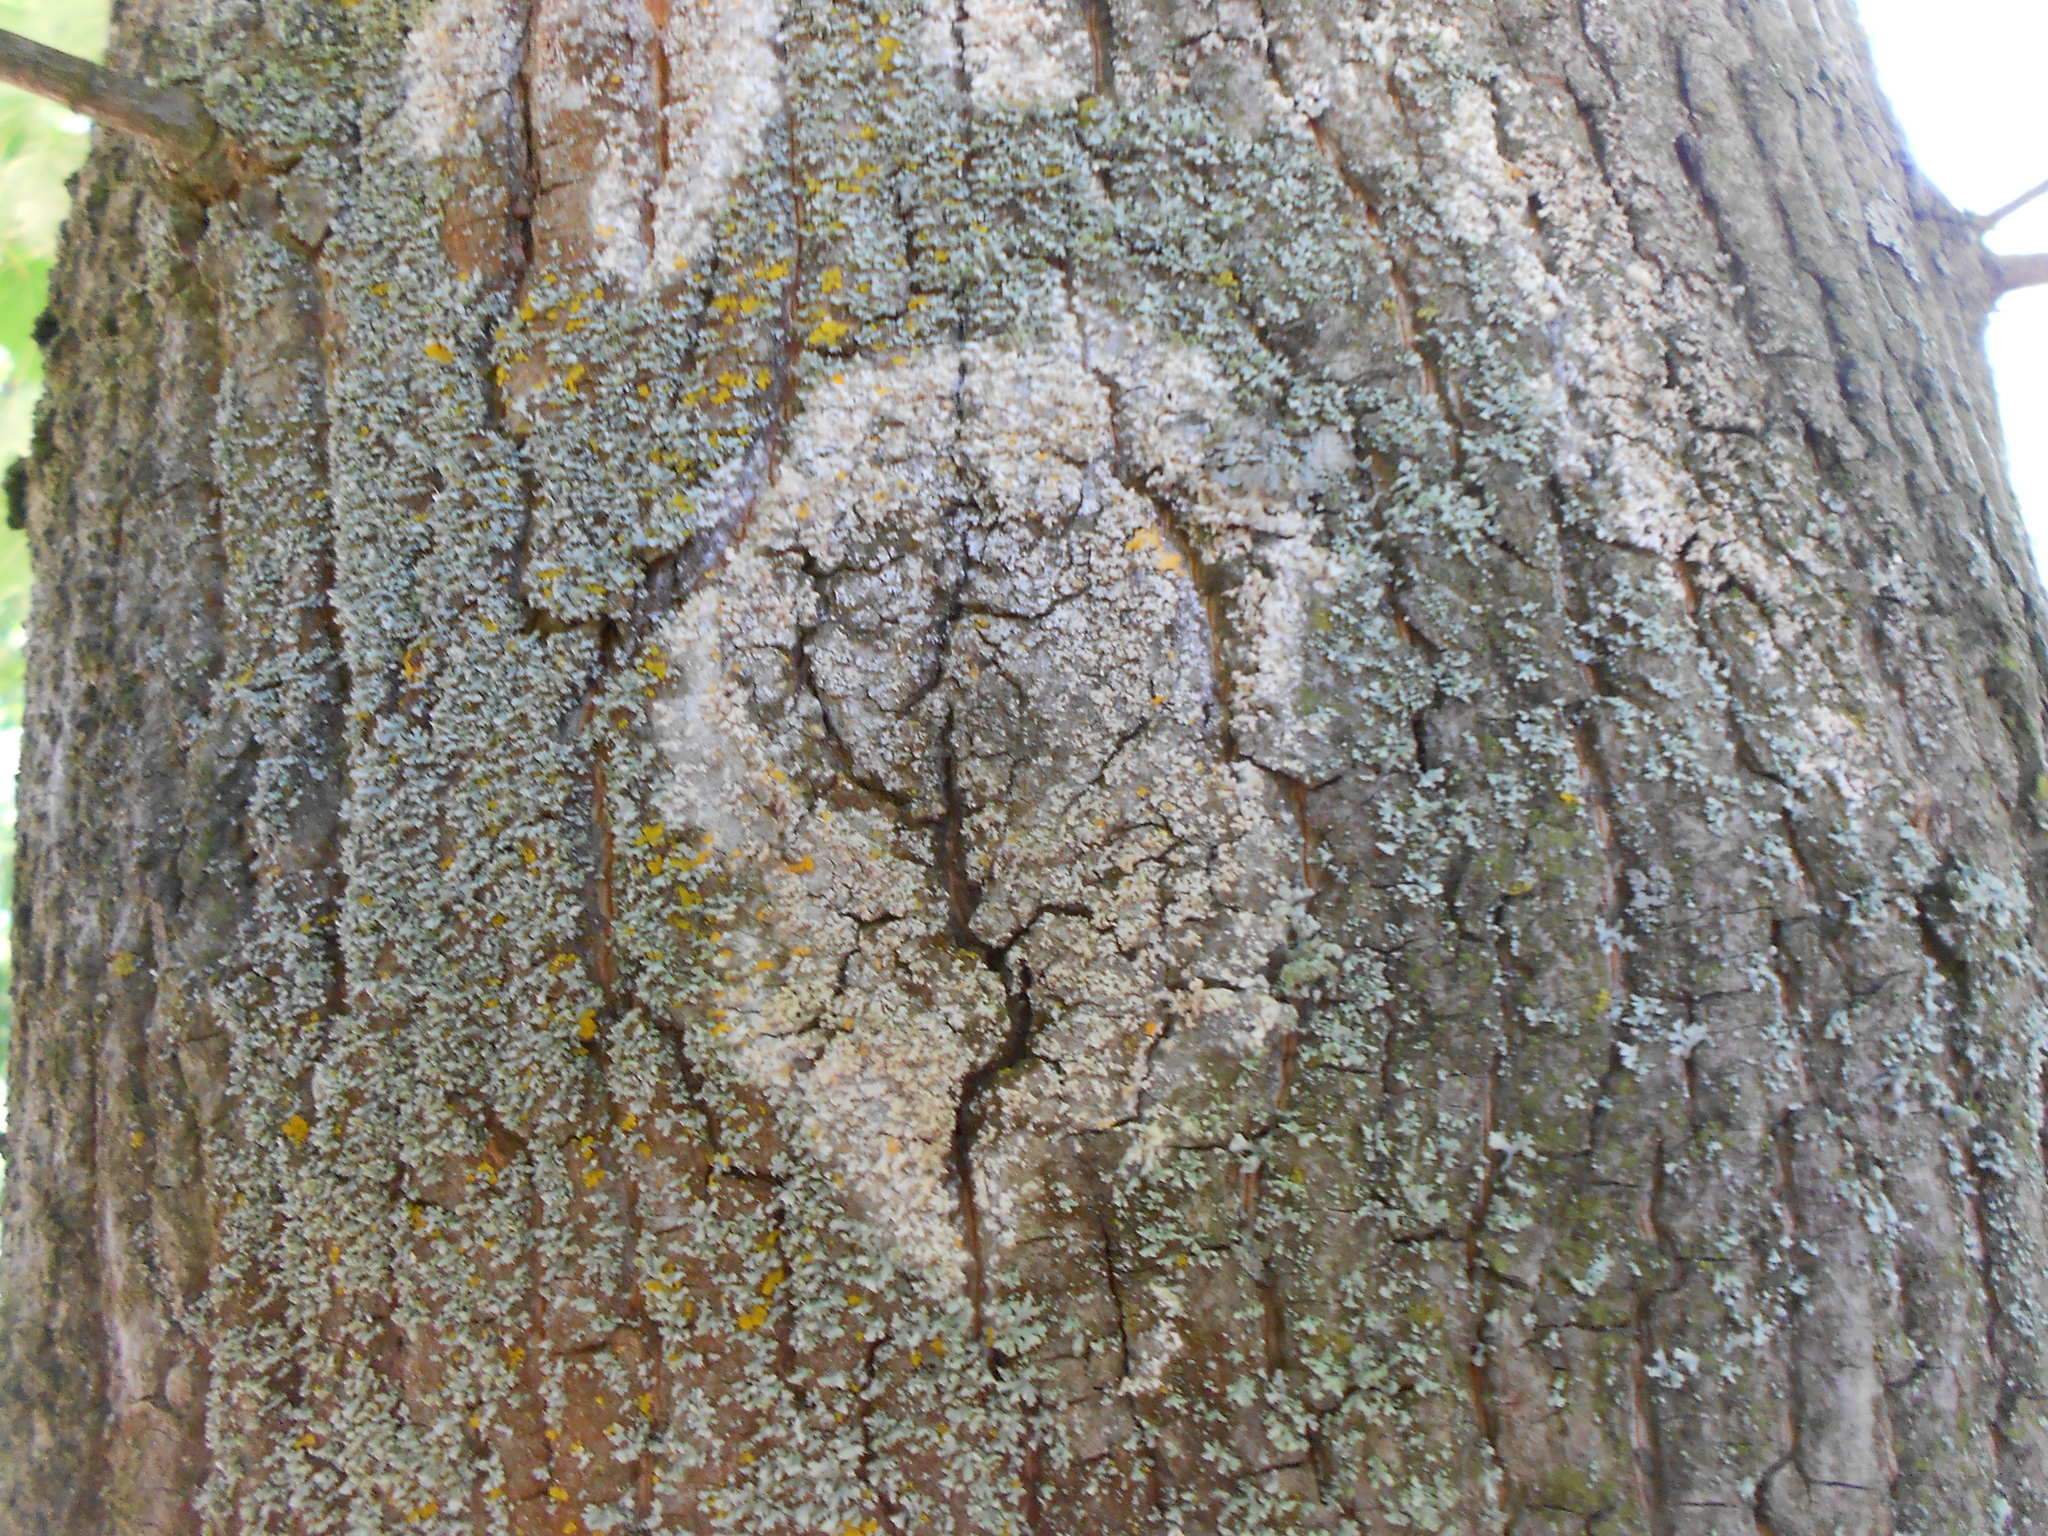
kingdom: Fungi
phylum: Basidiomycota
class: Agaricomycetes
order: Atheliales
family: Atheliaceae
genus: Athelia
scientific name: Athelia arachnoidea
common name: Candelabra duster
